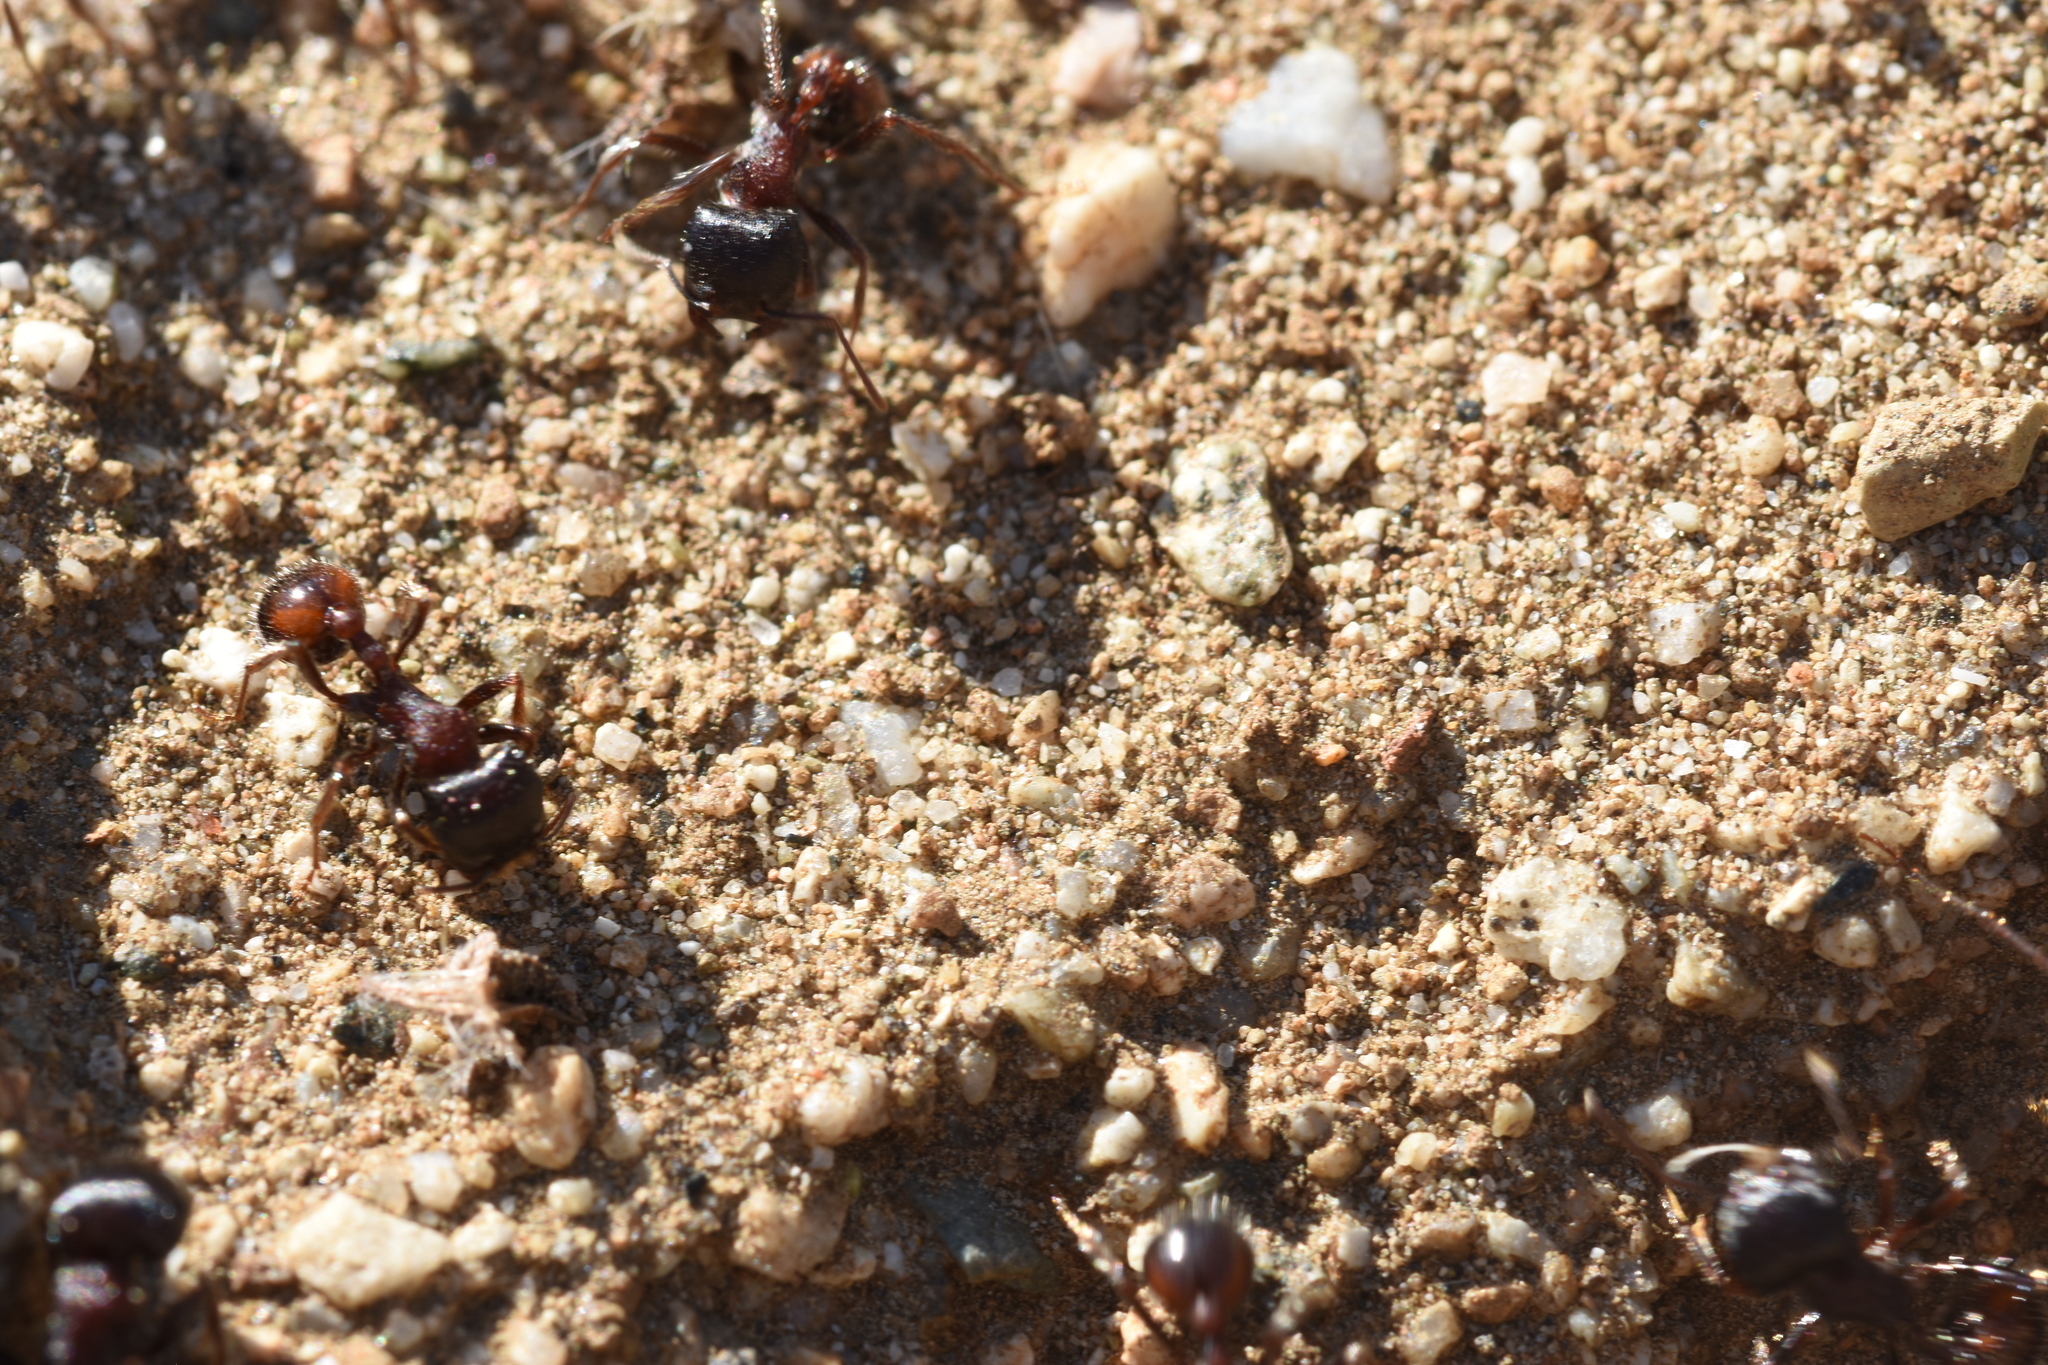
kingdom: Animalia
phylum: Arthropoda
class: Insecta
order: Hymenoptera
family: Formicidae
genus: Pogonomyrmex
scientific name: Pogonomyrmex rugosus
